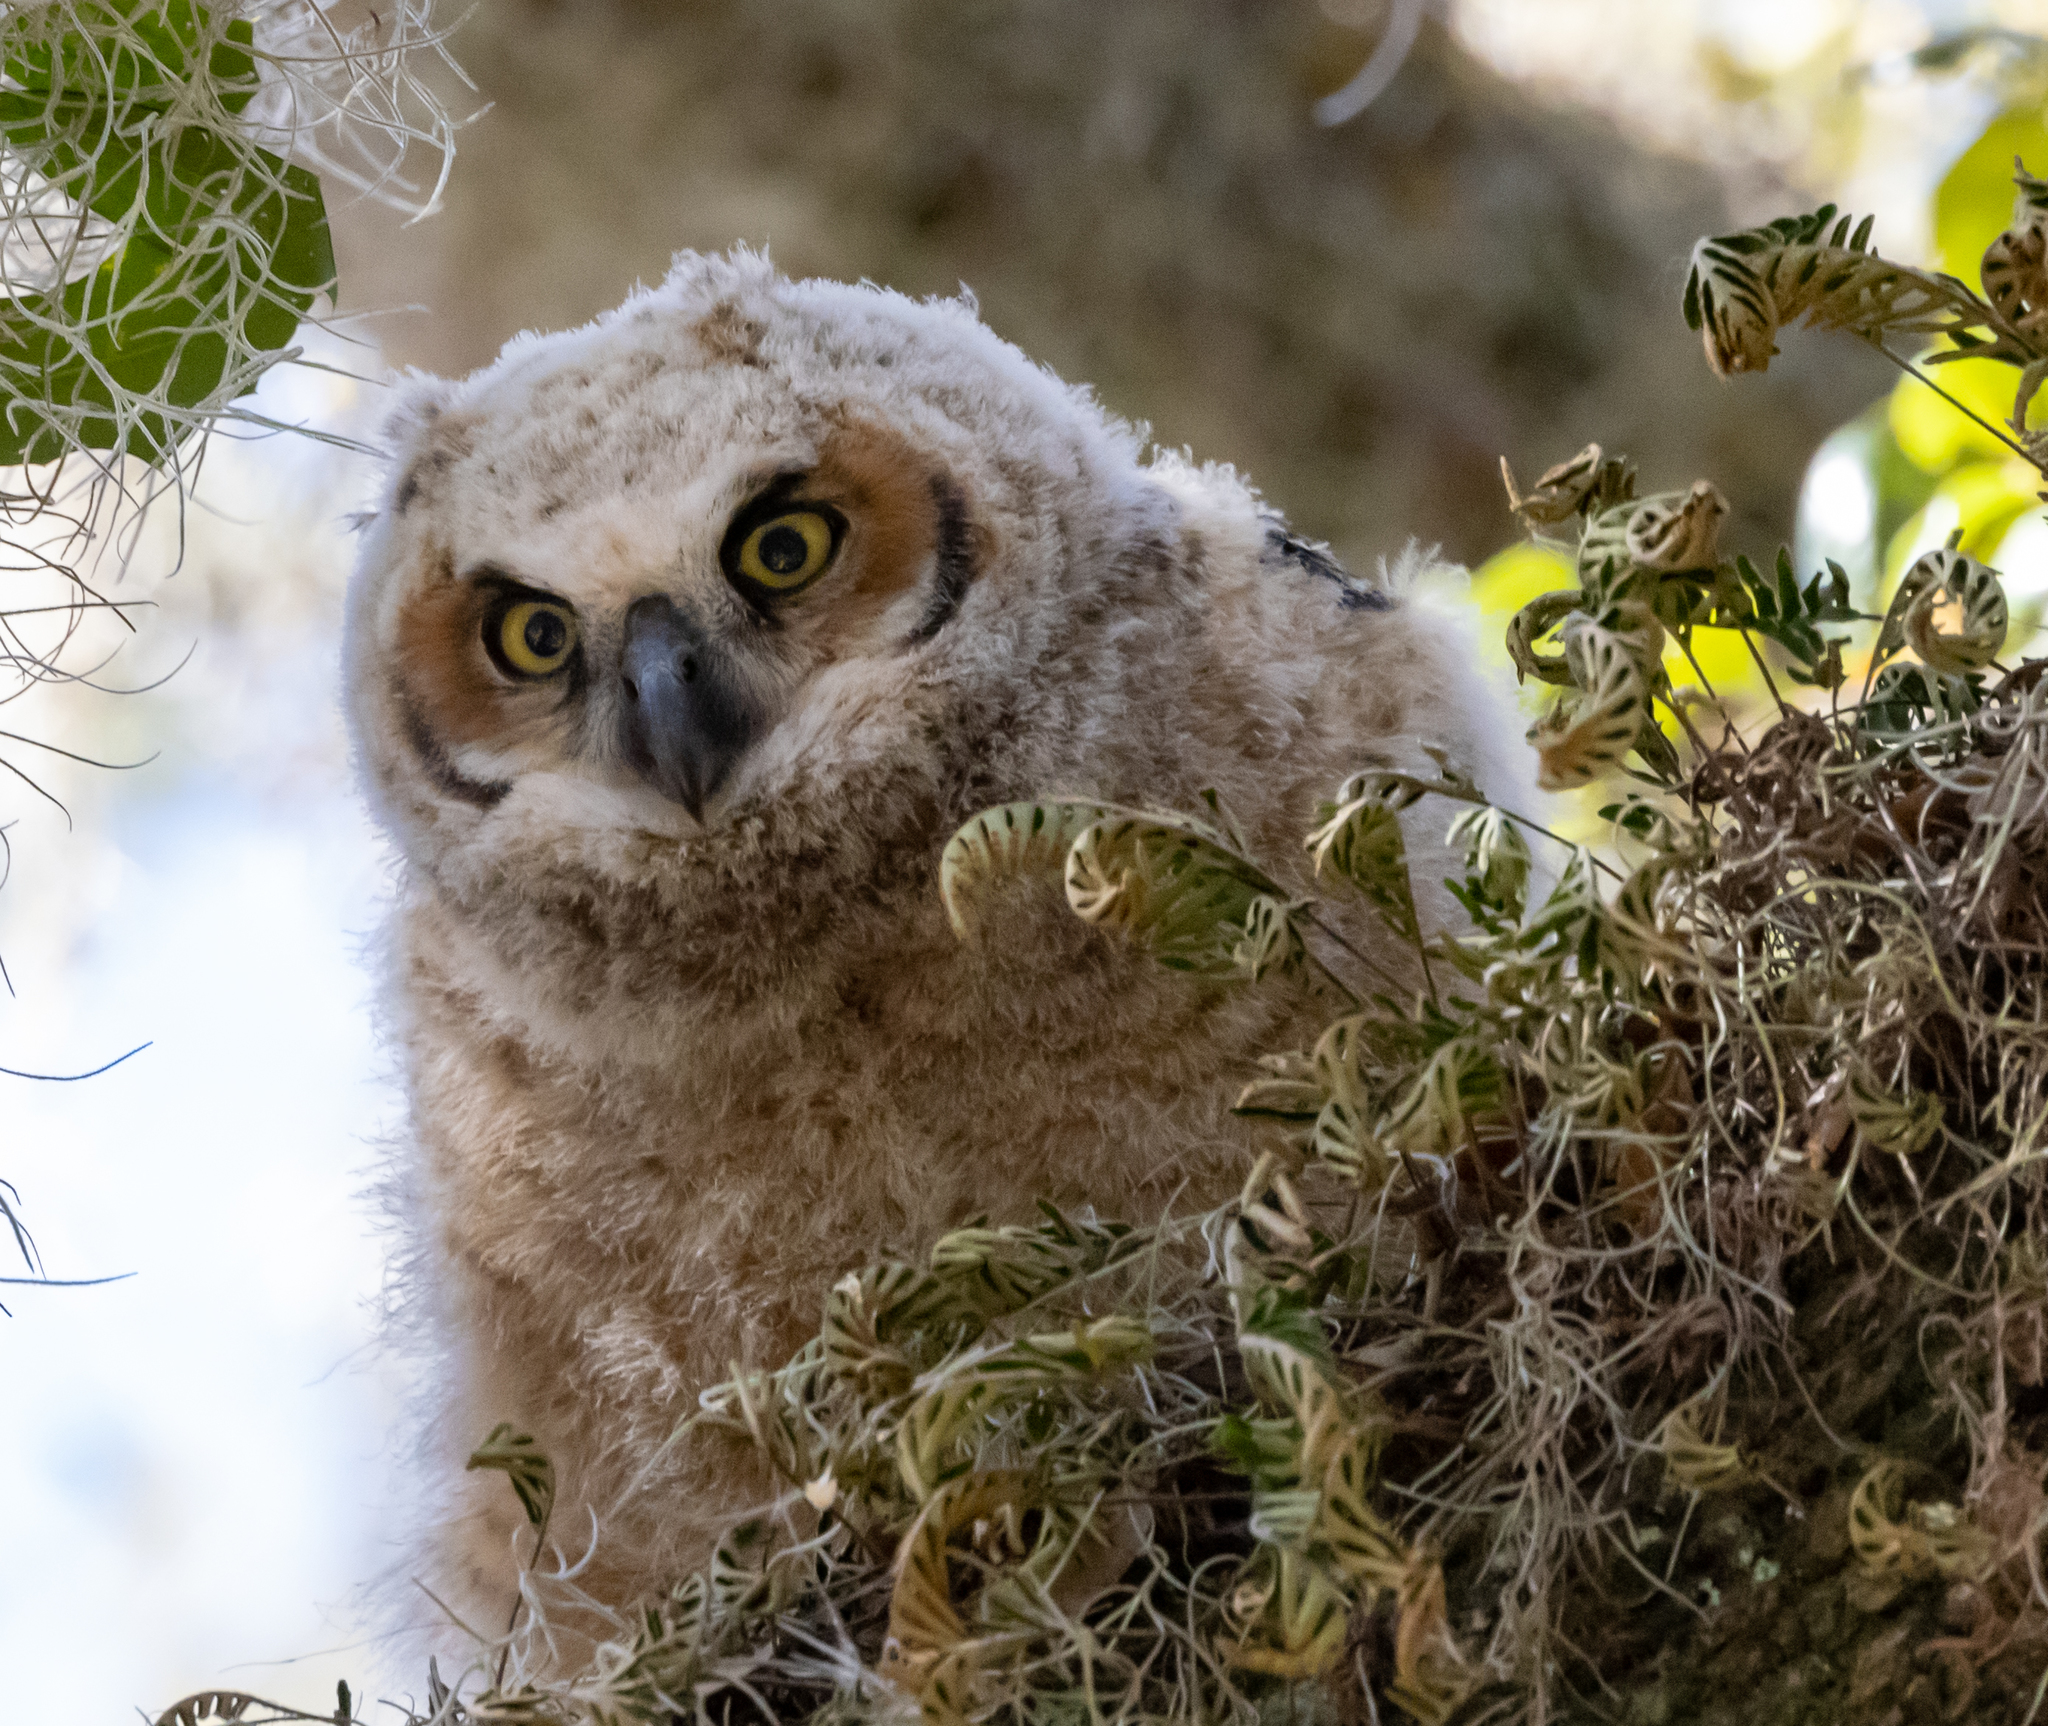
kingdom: Animalia
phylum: Chordata
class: Aves
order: Strigiformes
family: Strigidae
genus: Bubo
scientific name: Bubo virginianus
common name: Great horned owl
